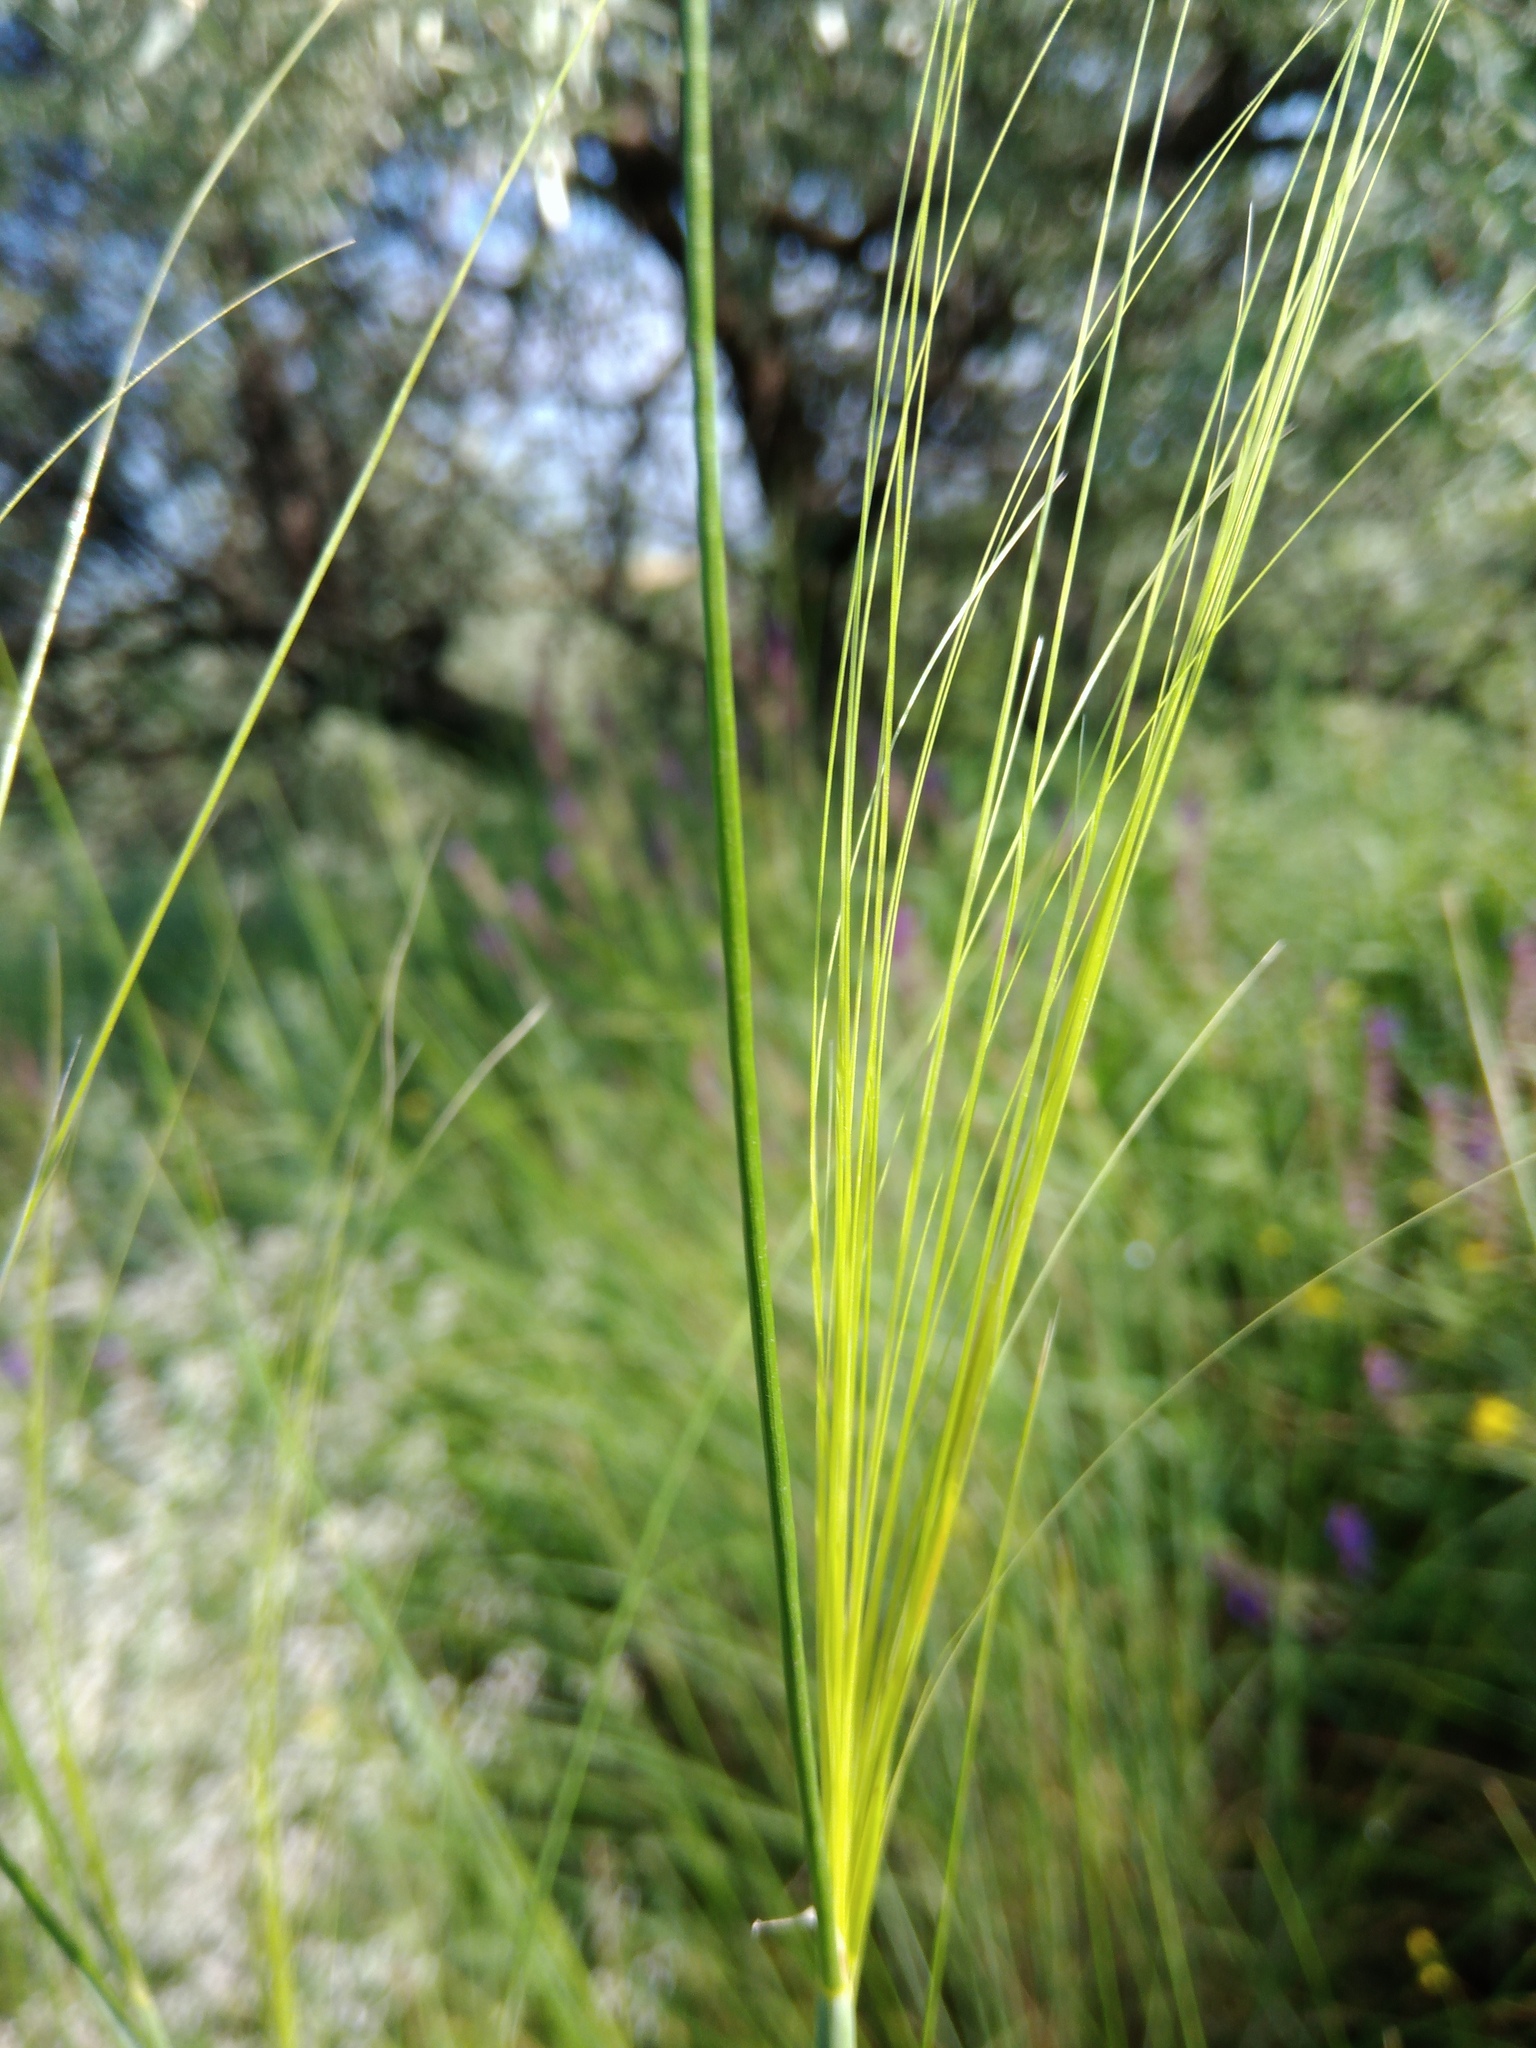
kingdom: Plantae
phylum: Tracheophyta
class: Liliopsida
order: Poales
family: Poaceae
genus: Stipa
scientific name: Stipa capillata
